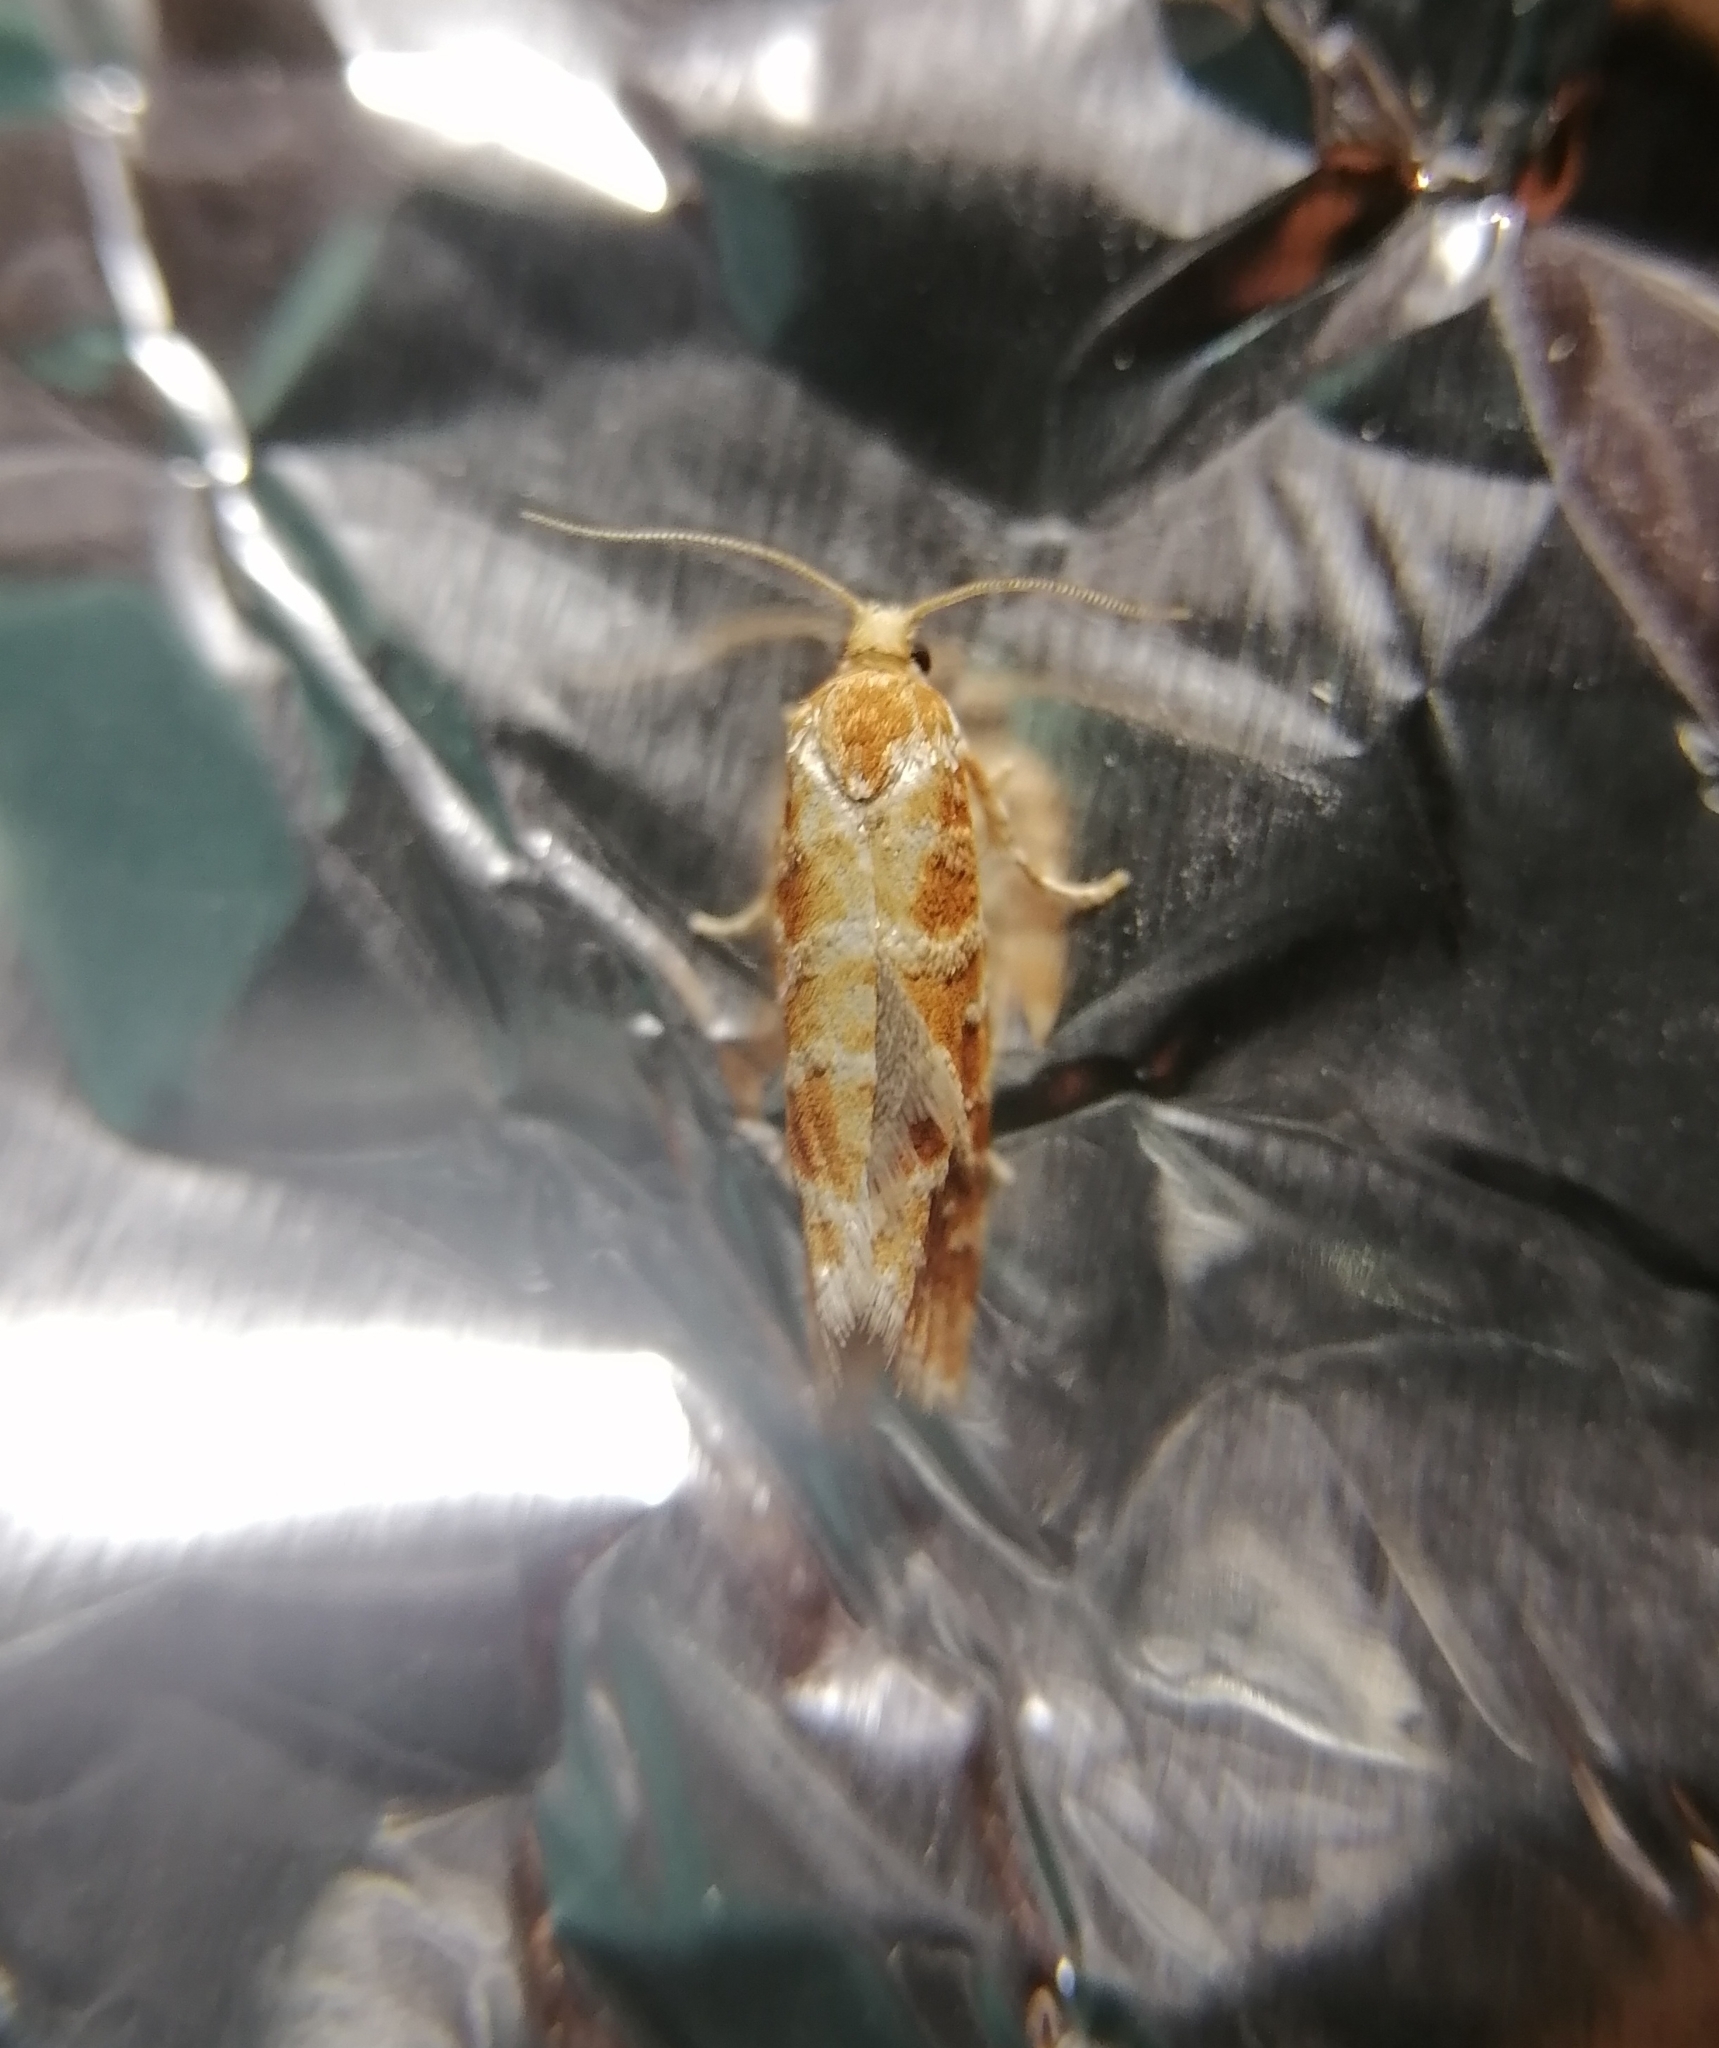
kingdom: Animalia
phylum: Arthropoda
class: Insecta
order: Lepidoptera
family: Tortricidae
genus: Rhyacionia
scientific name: Rhyacionia pinicolana
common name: Orange-spotted shoot
